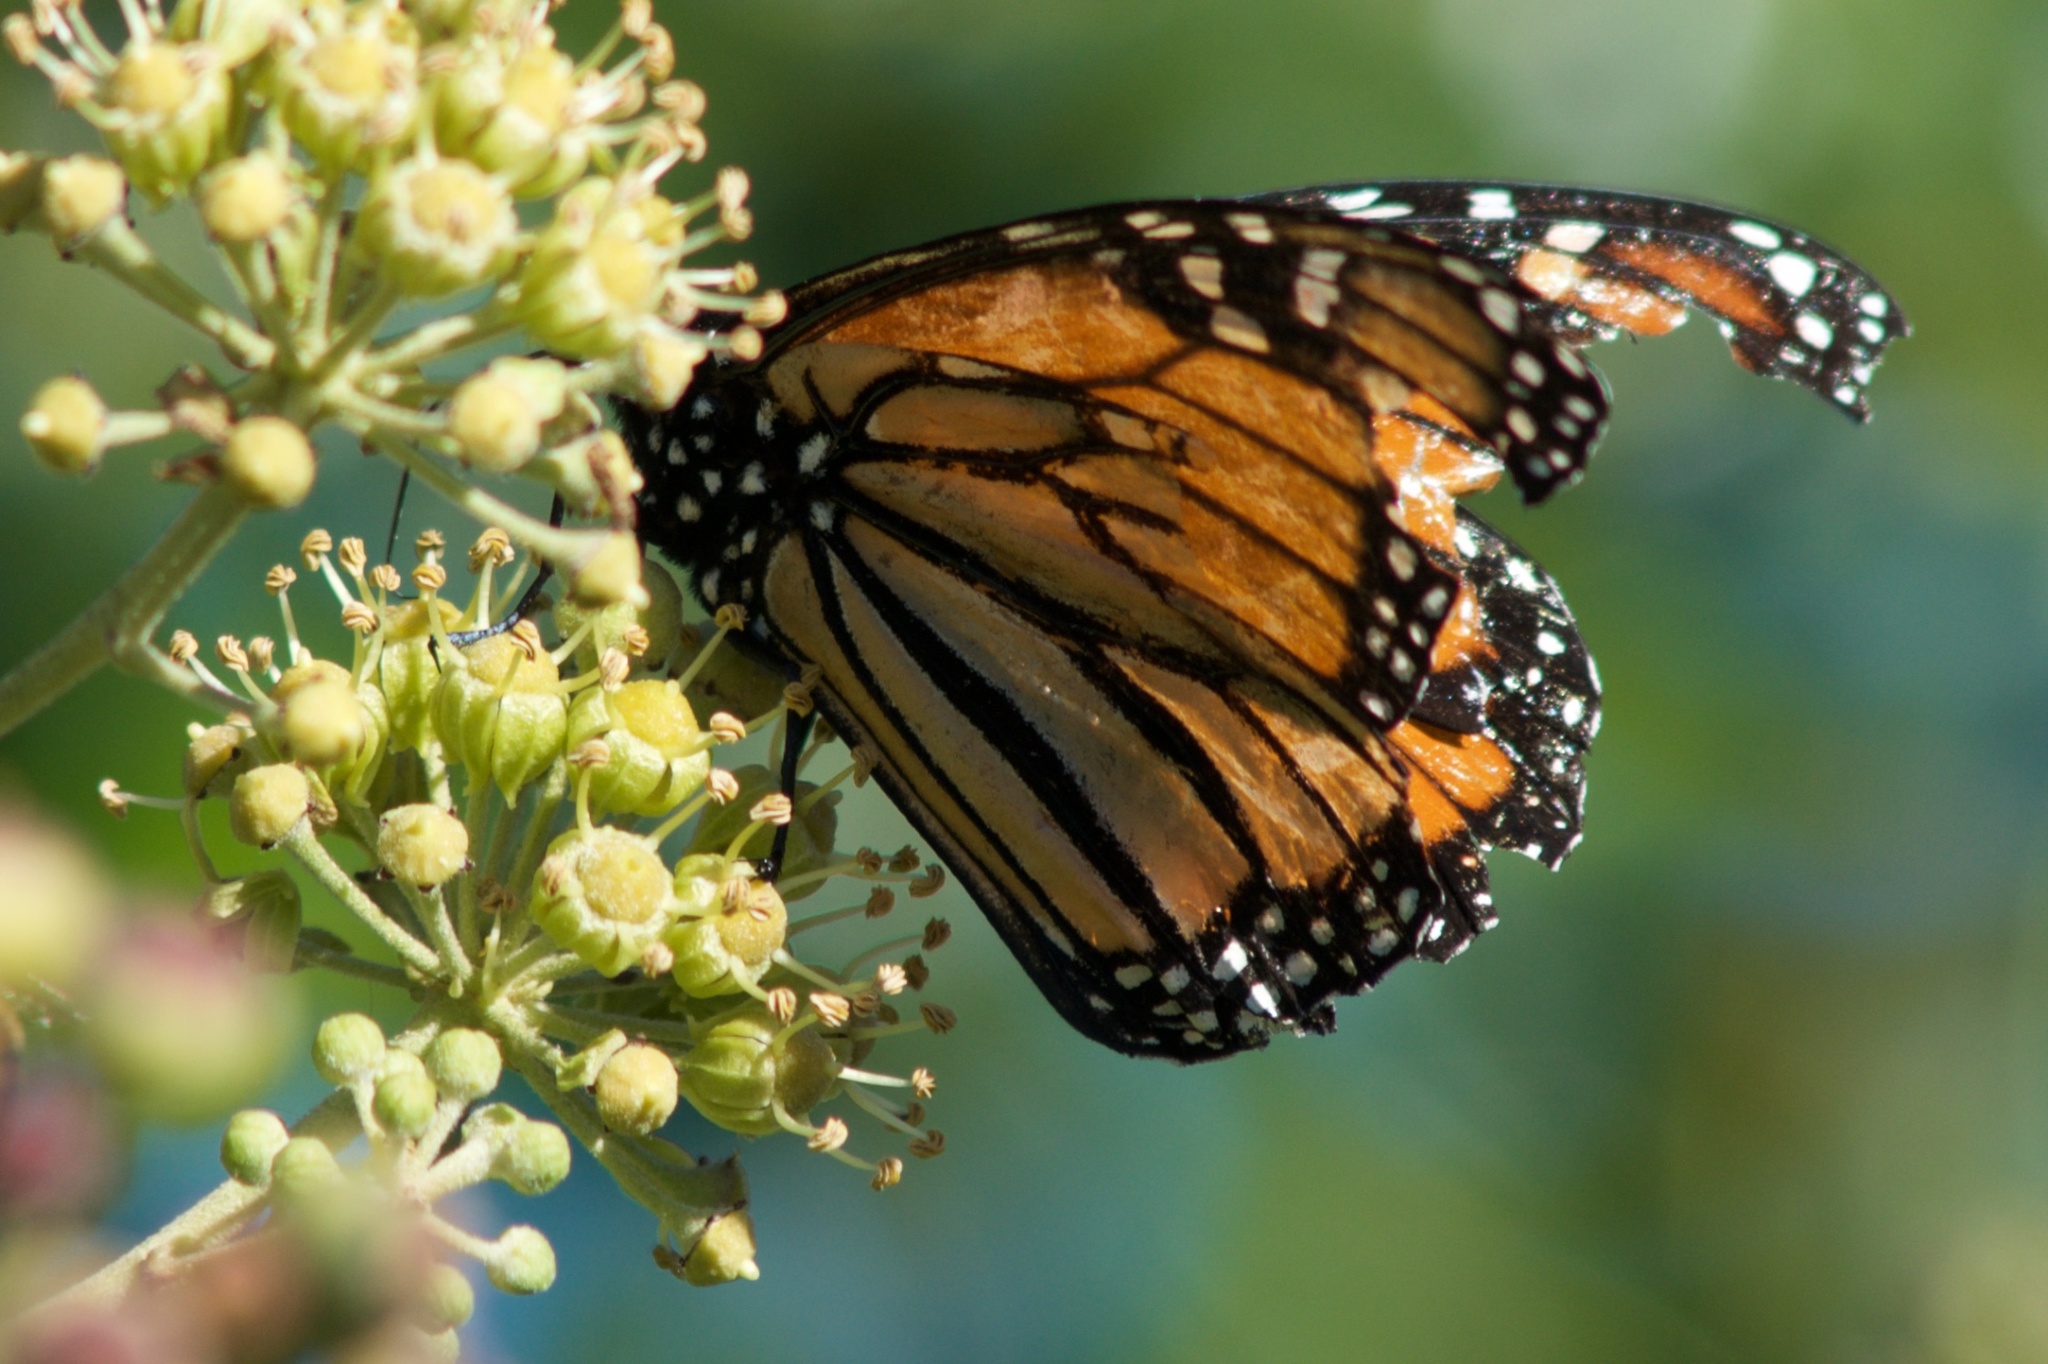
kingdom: Animalia
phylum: Arthropoda
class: Insecta
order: Lepidoptera
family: Nymphalidae
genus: Danaus
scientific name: Danaus plexippus
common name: Monarch
